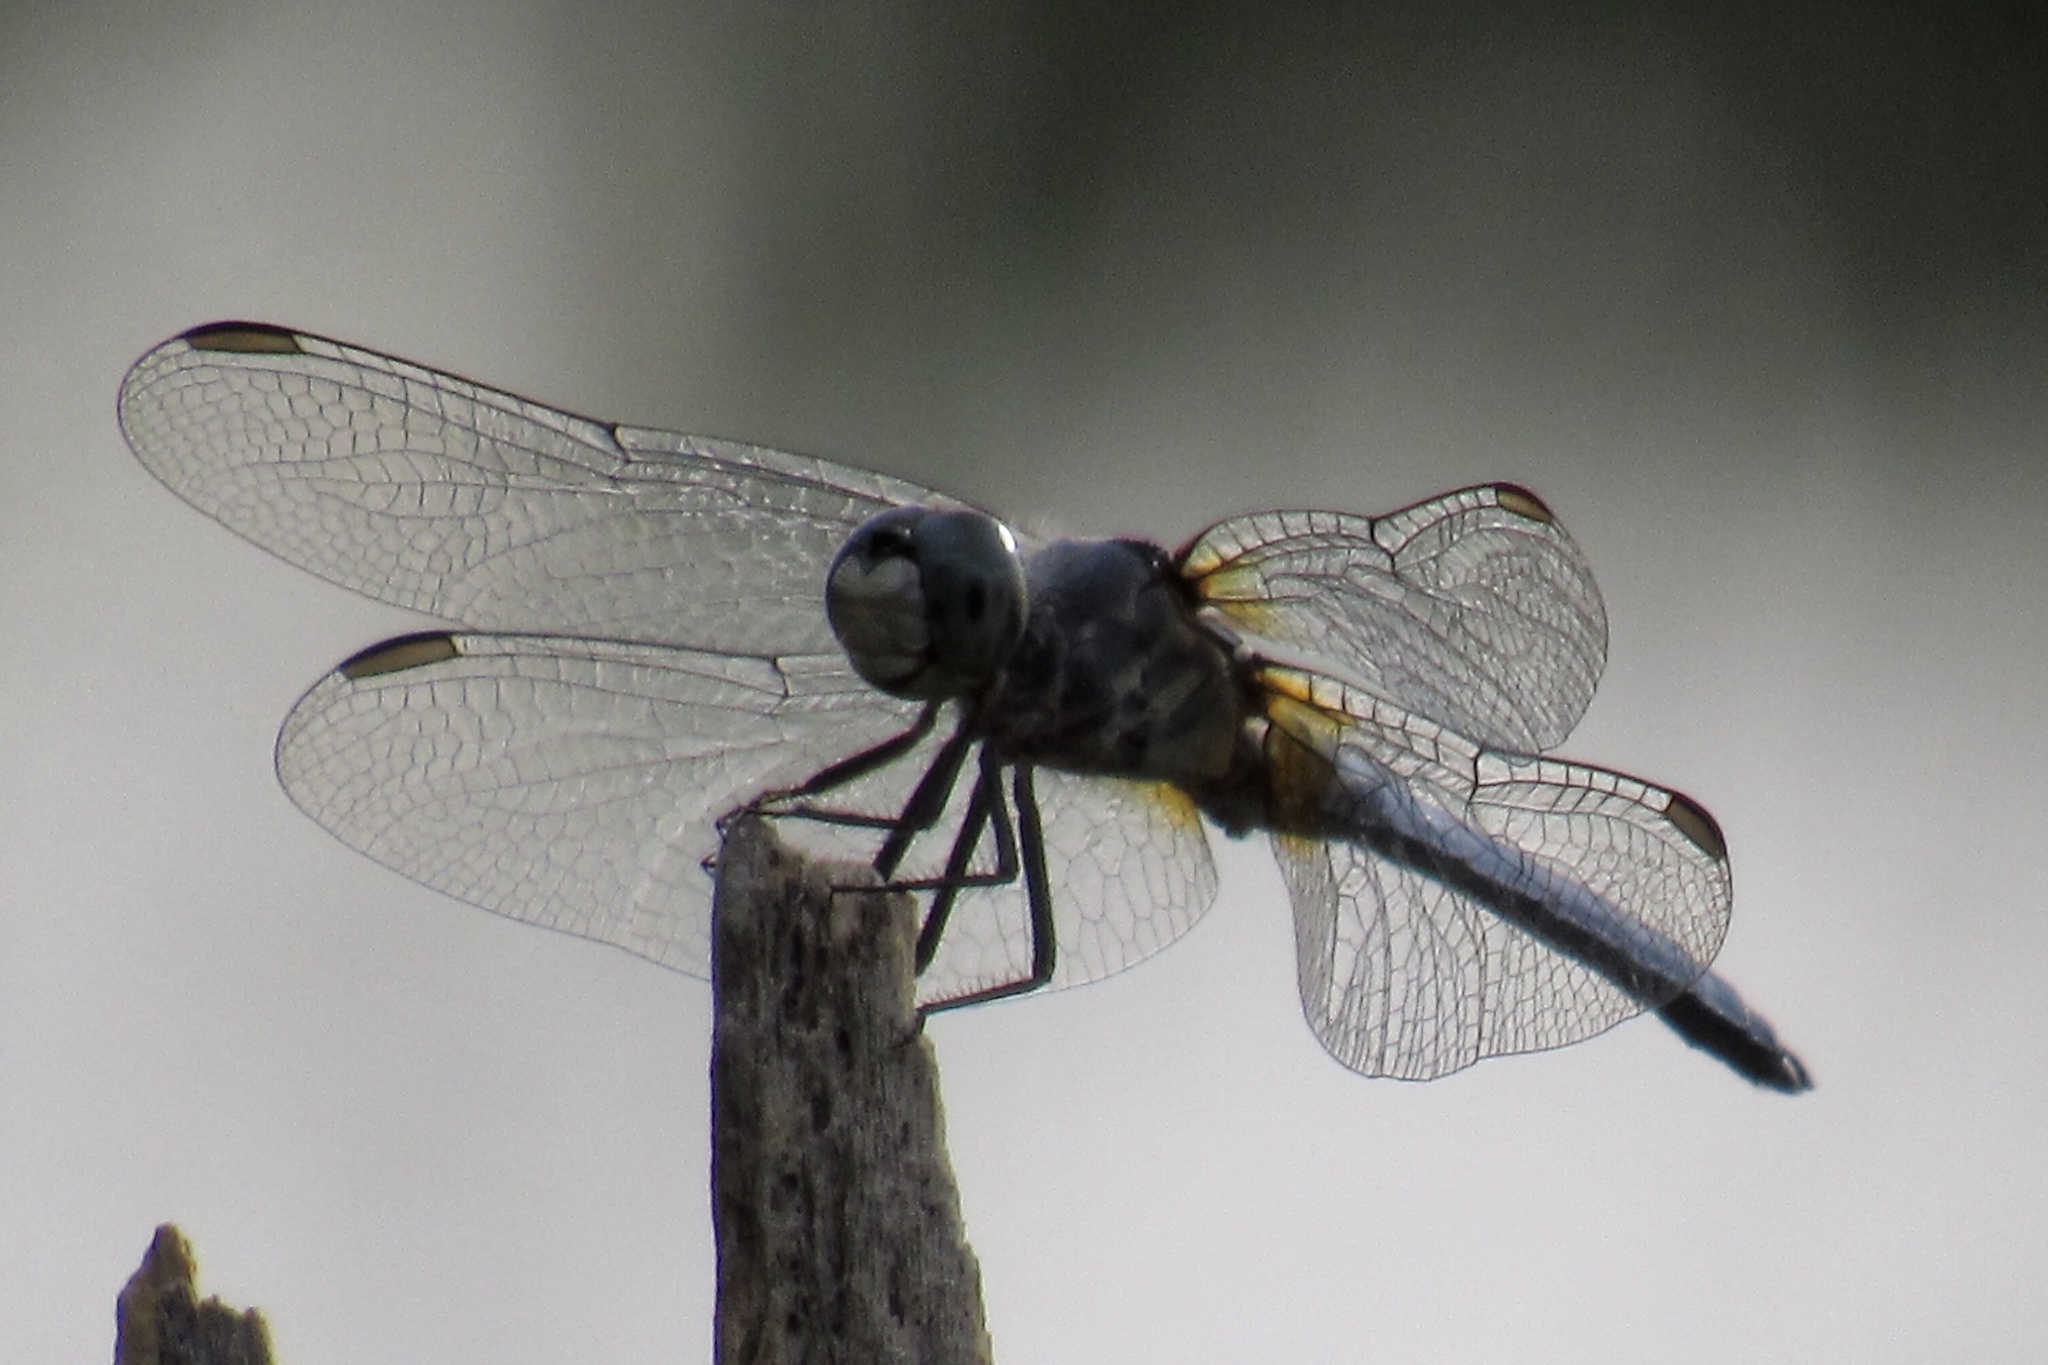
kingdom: Animalia
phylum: Arthropoda
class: Insecta
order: Odonata
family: Libellulidae
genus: Pachydiplax
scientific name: Pachydiplax longipennis
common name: Blue dasher
